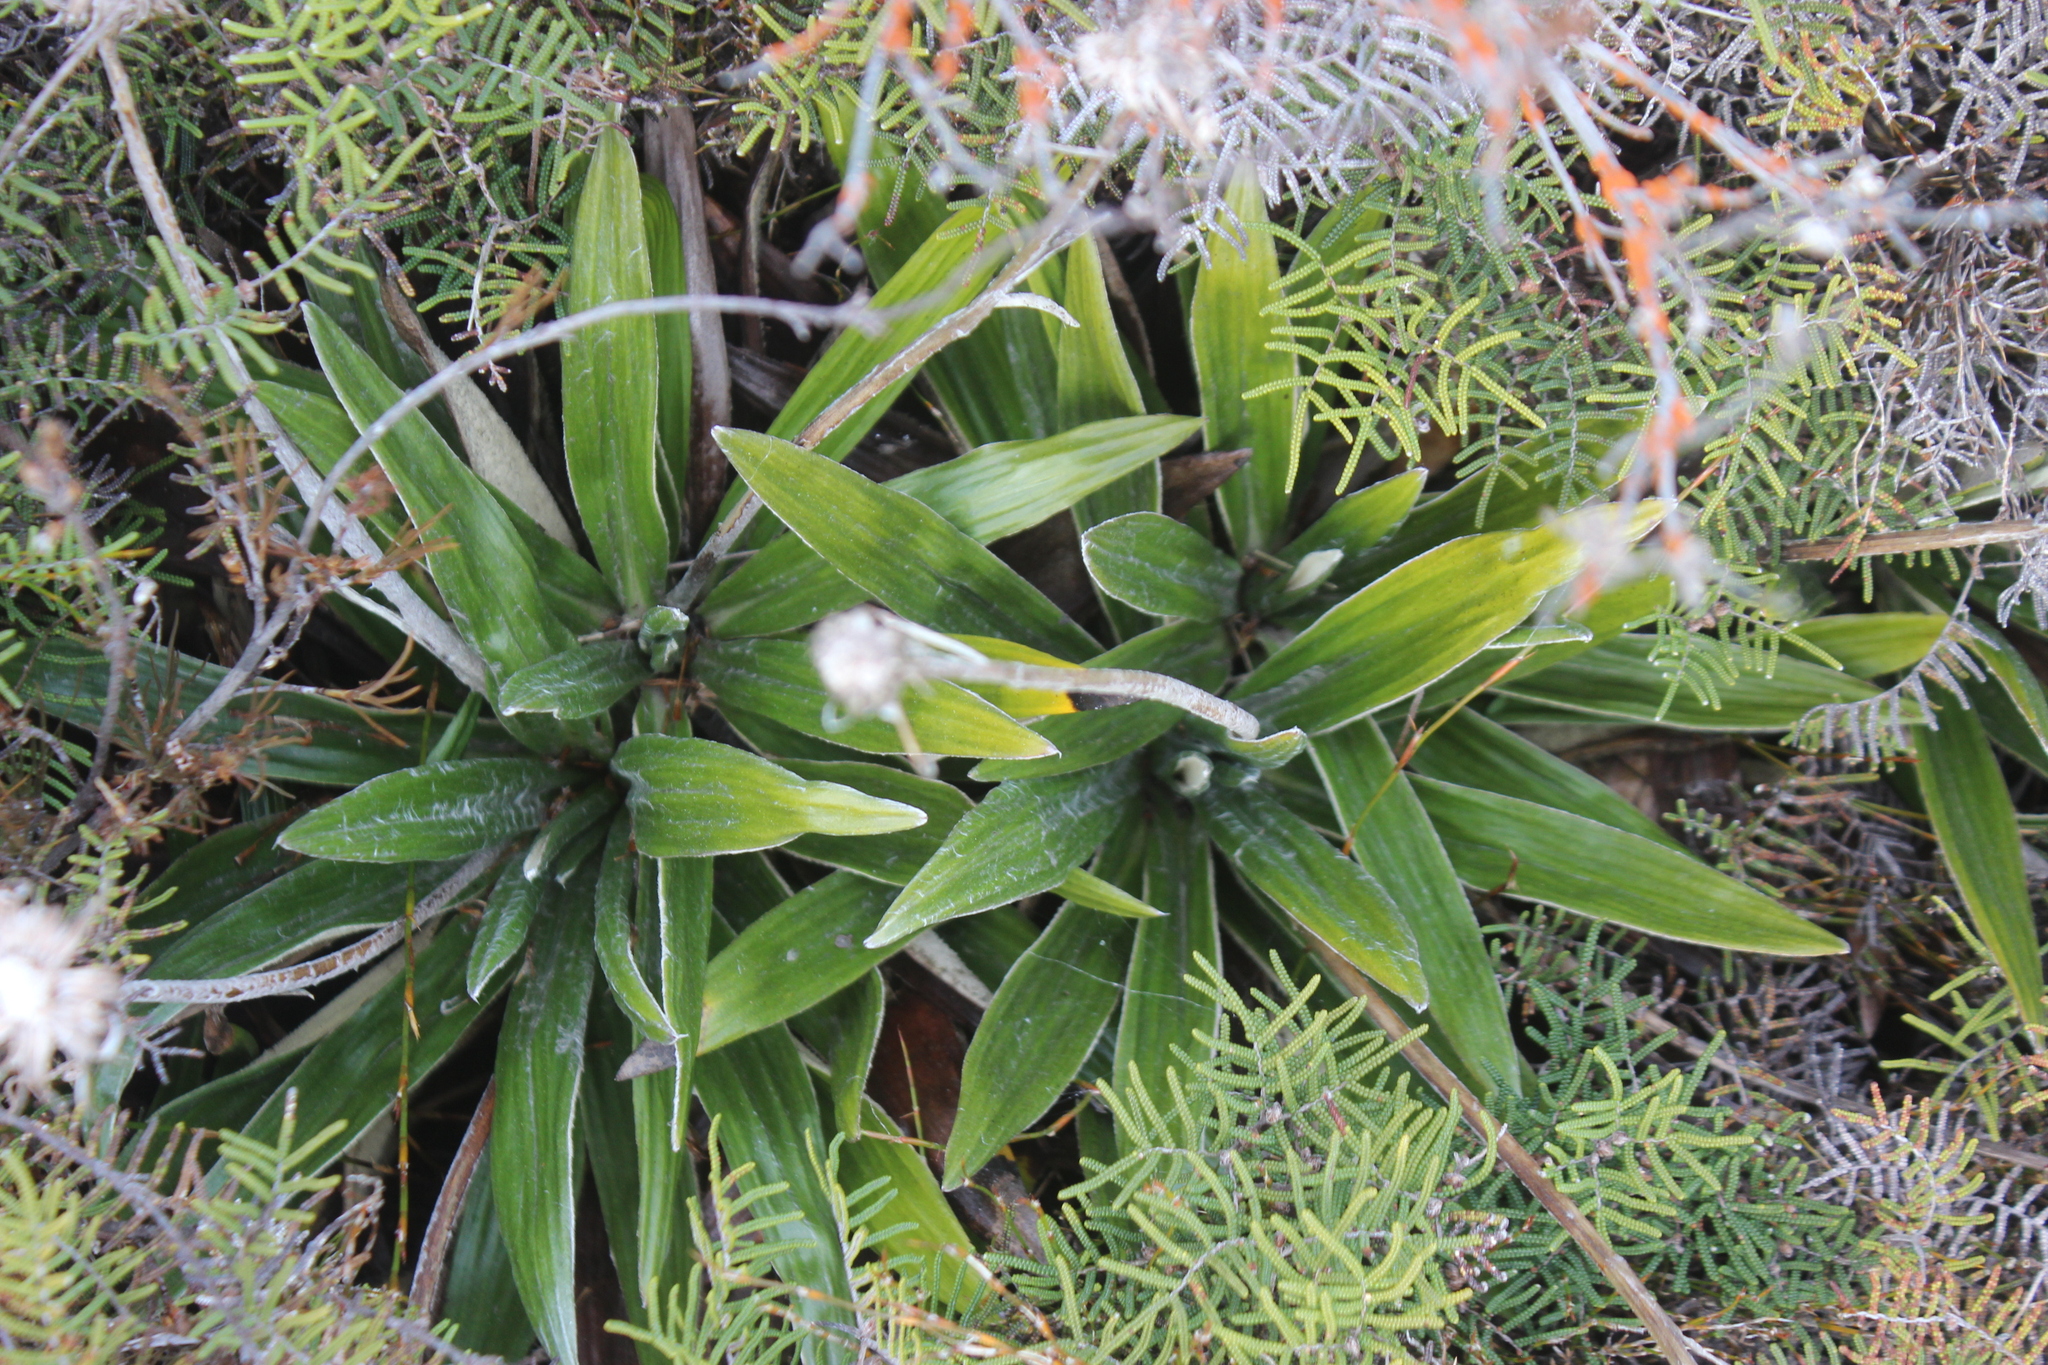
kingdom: Plantae
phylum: Tracheophyta
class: Magnoliopsida
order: Asterales
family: Asteraceae
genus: Celmisia
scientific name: Celmisia spectabilis
